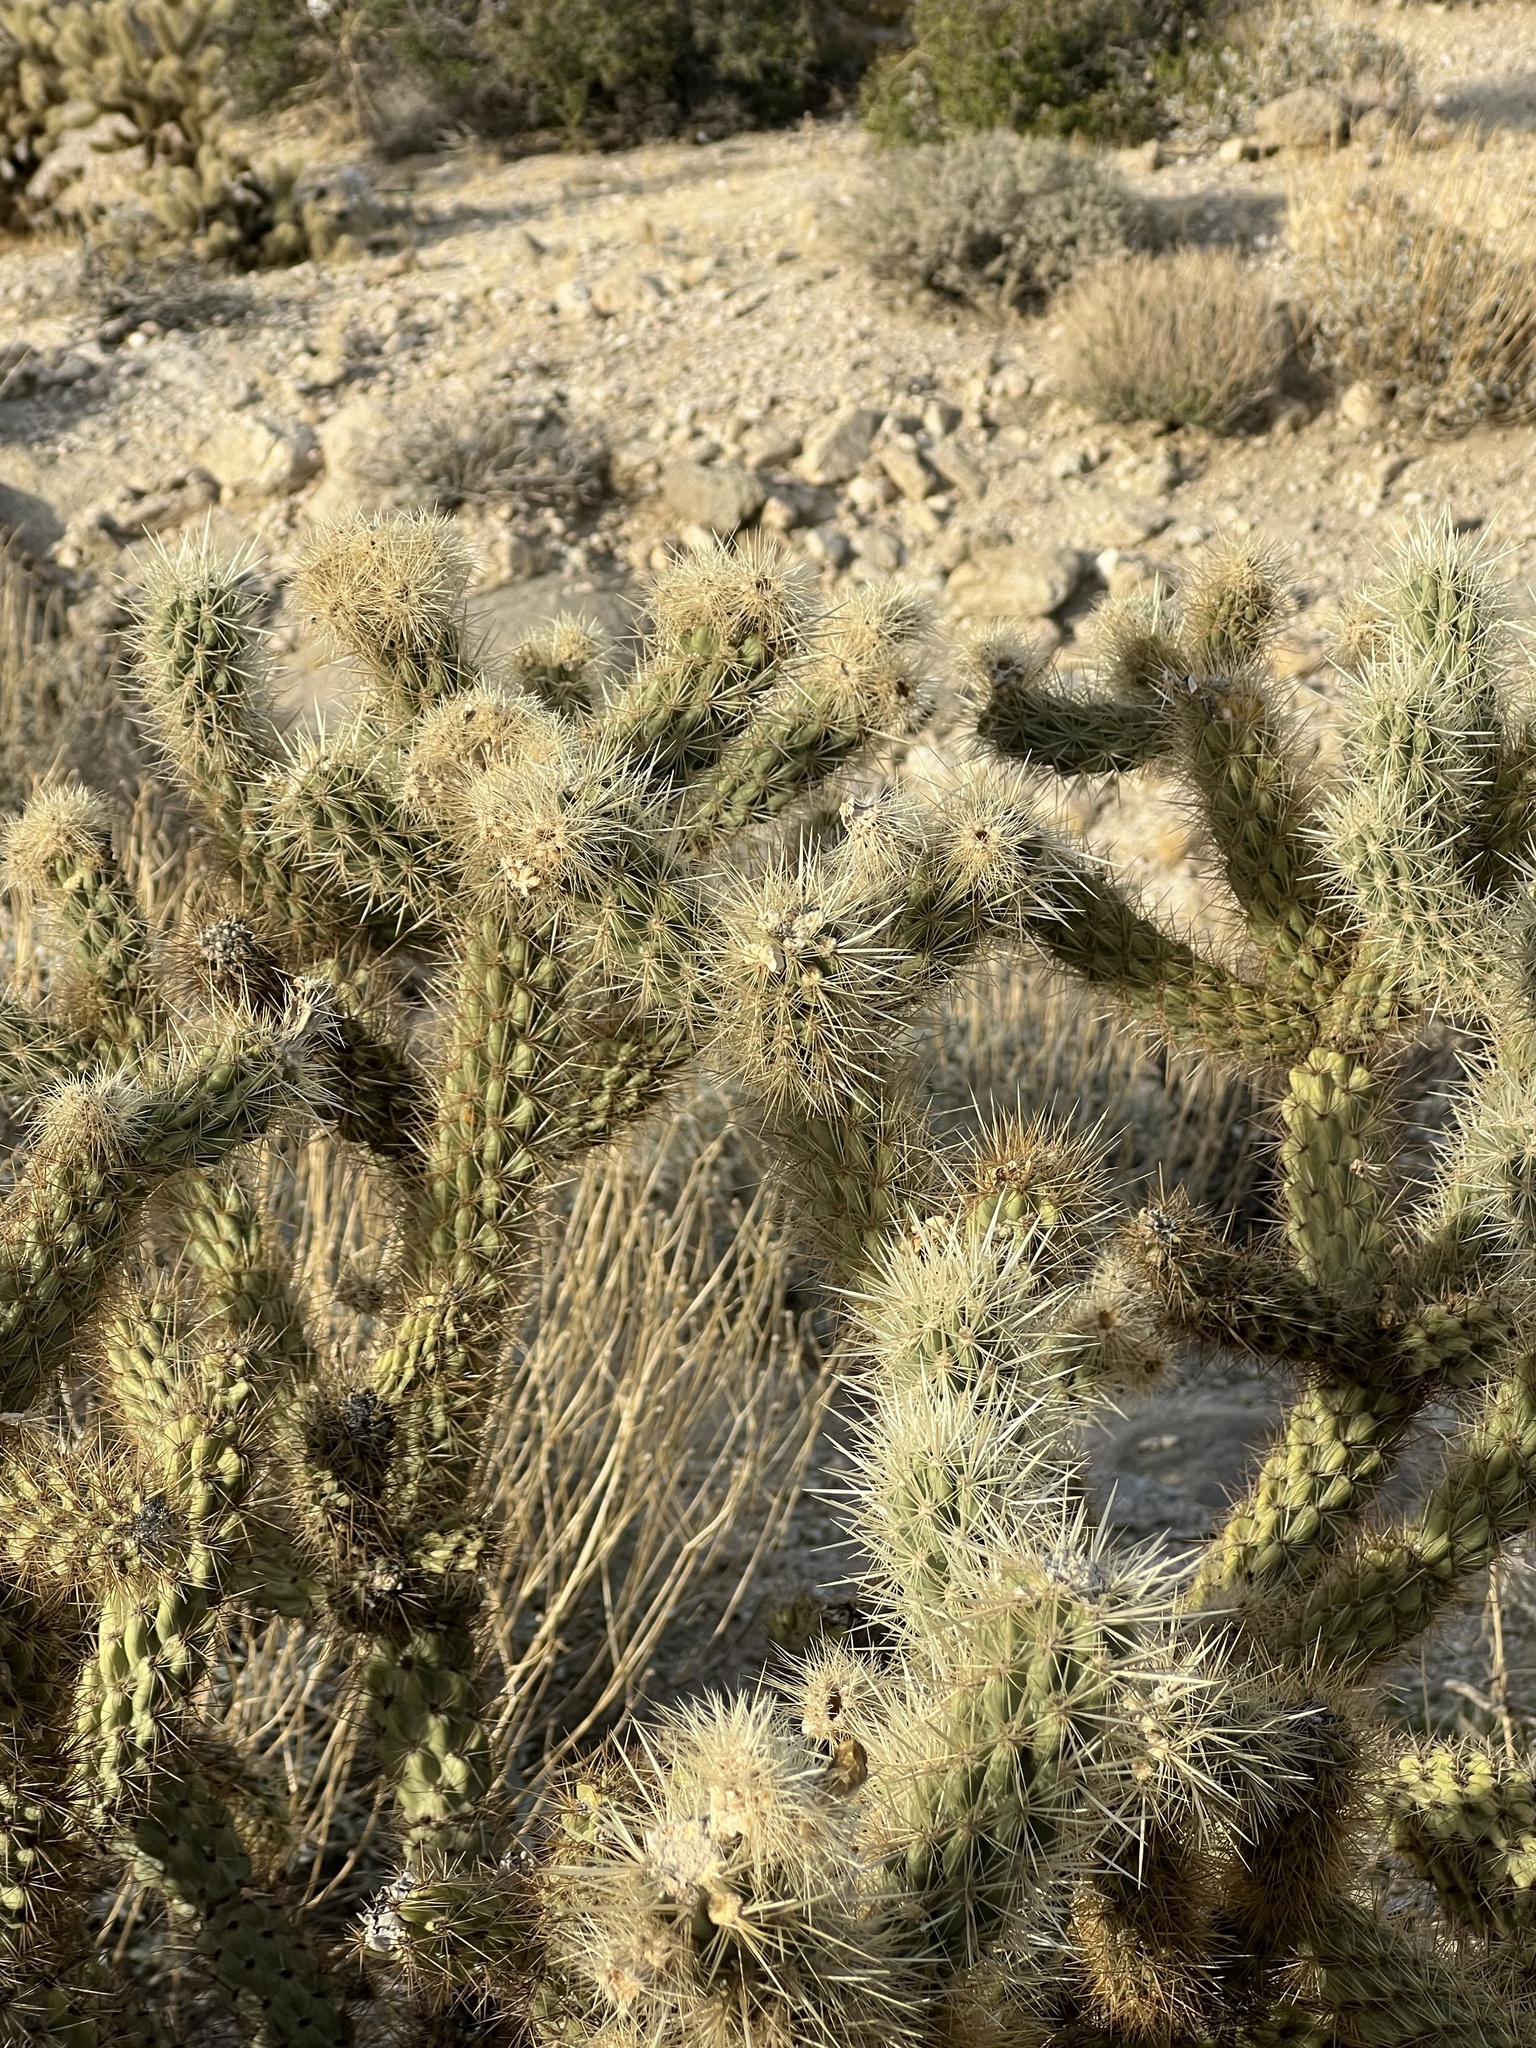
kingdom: Plantae
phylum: Tracheophyta
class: Magnoliopsida
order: Caryophyllales
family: Cactaceae
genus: Cylindropuntia
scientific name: Cylindropuntia wolfii
